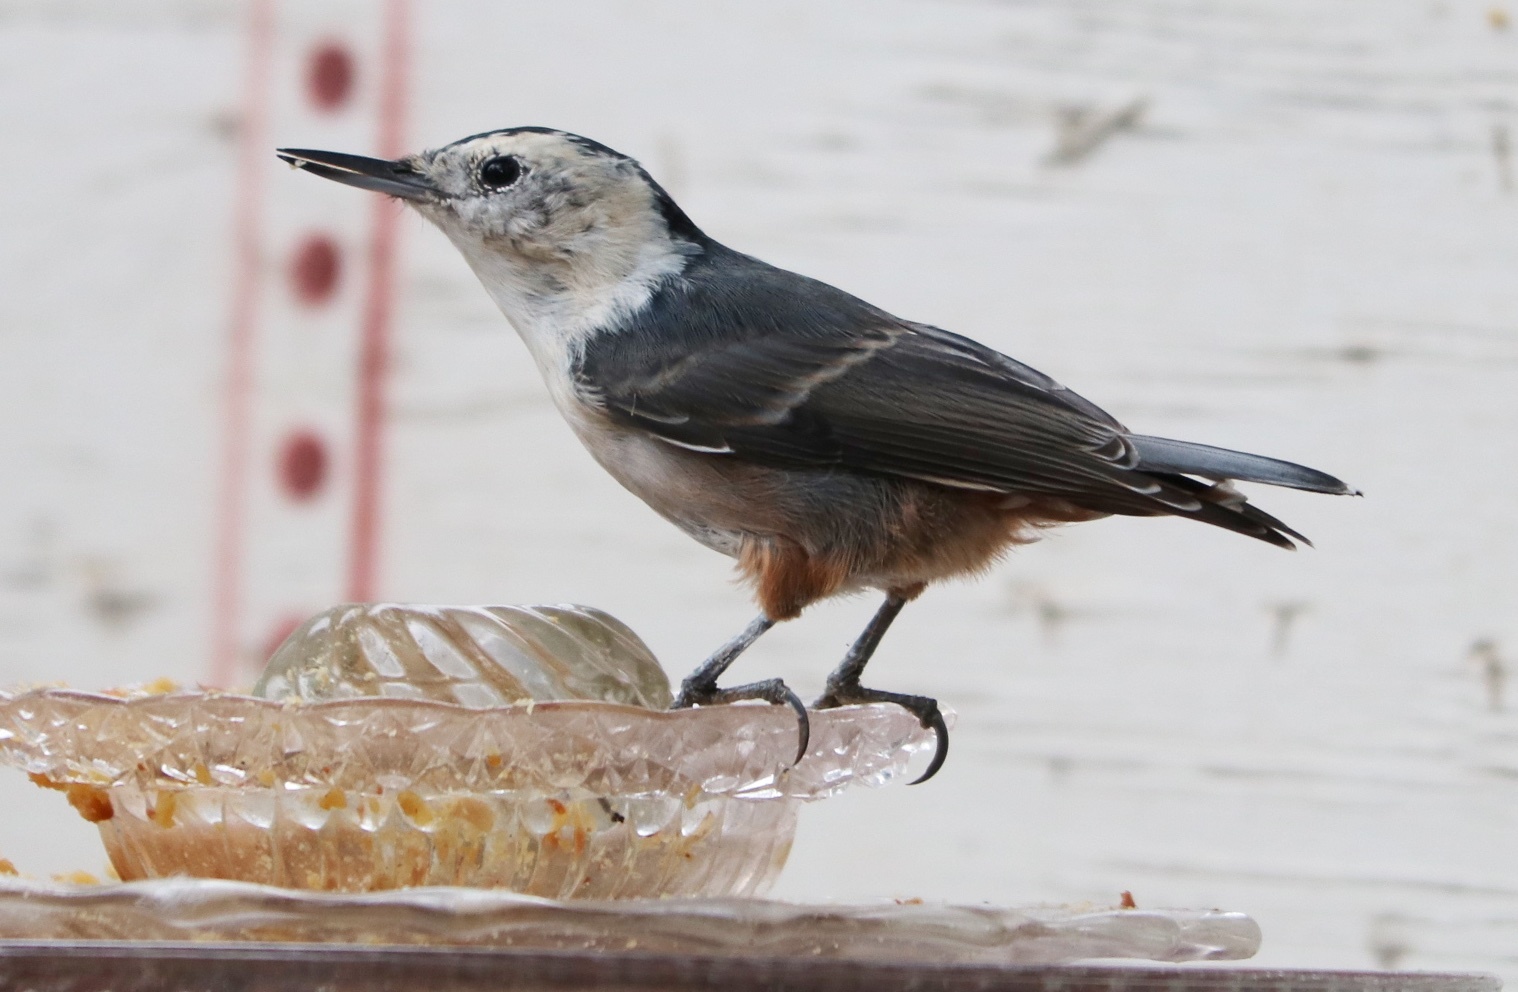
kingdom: Animalia
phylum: Chordata
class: Aves
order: Passeriformes
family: Sittidae
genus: Sitta
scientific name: Sitta carolinensis
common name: White-breasted nuthatch
